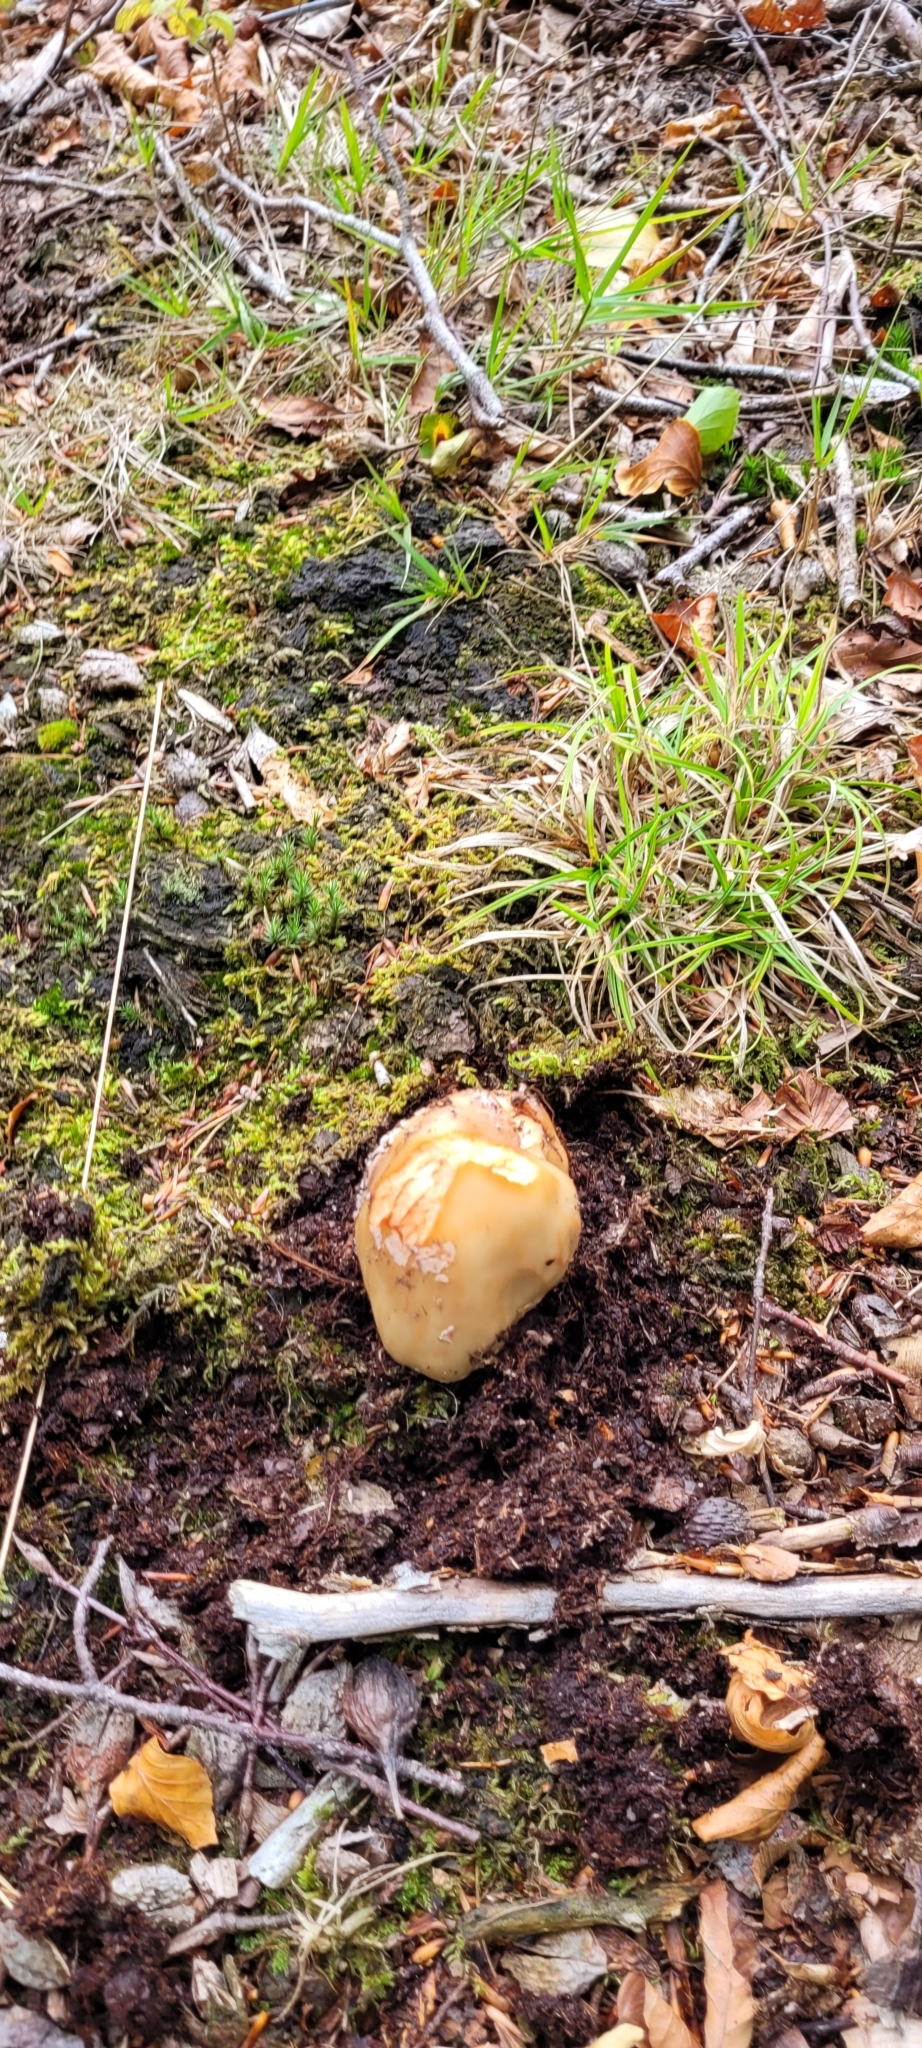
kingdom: Fungi
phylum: Basidiomycota
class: Agaricomycetes
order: Agaricales
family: Amanitaceae
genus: Amanita
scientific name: Amanita rubescens
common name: Blusher
